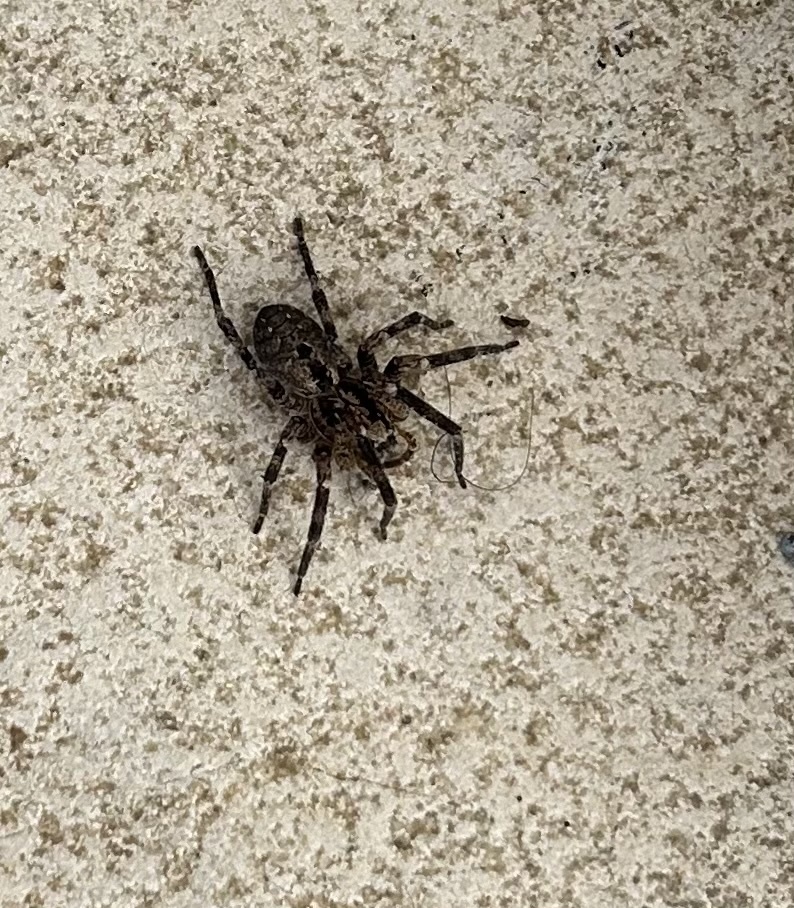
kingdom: Animalia
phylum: Arthropoda
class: Arachnida
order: Araneae
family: Zoropsidae
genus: Zoropsis
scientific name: Zoropsis spinimana
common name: Zoropsid spider
